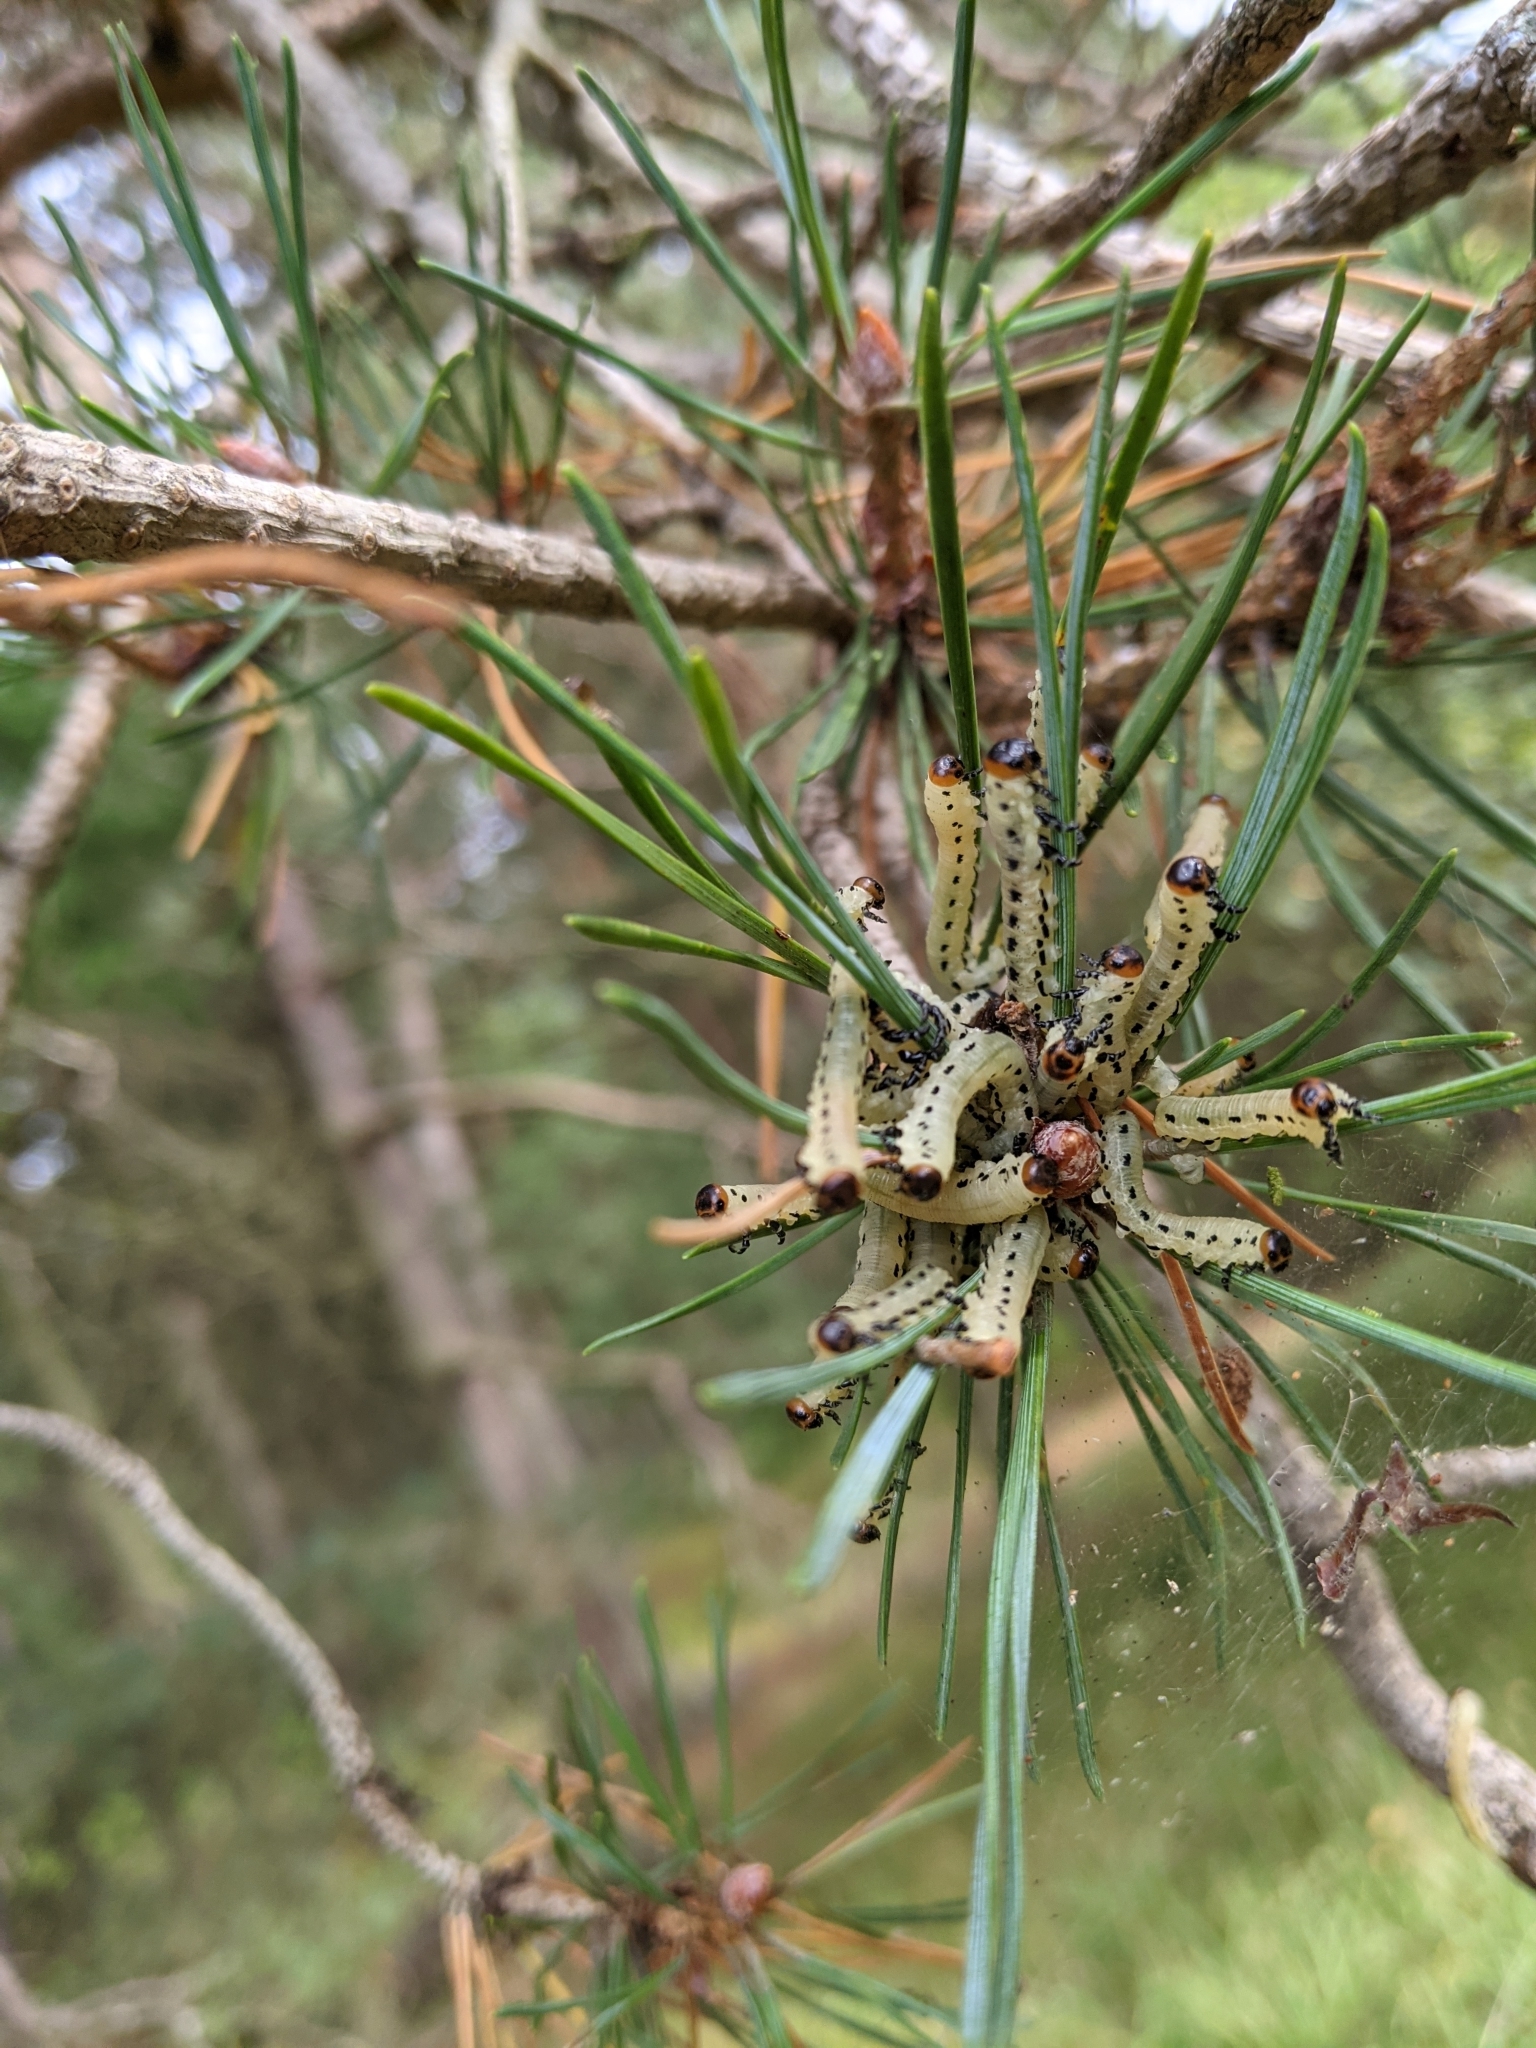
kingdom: Animalia
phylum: Arthropoda
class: Insecta
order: Hymenoptera
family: Diprionidae
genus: Diprion
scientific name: Diprion pini
